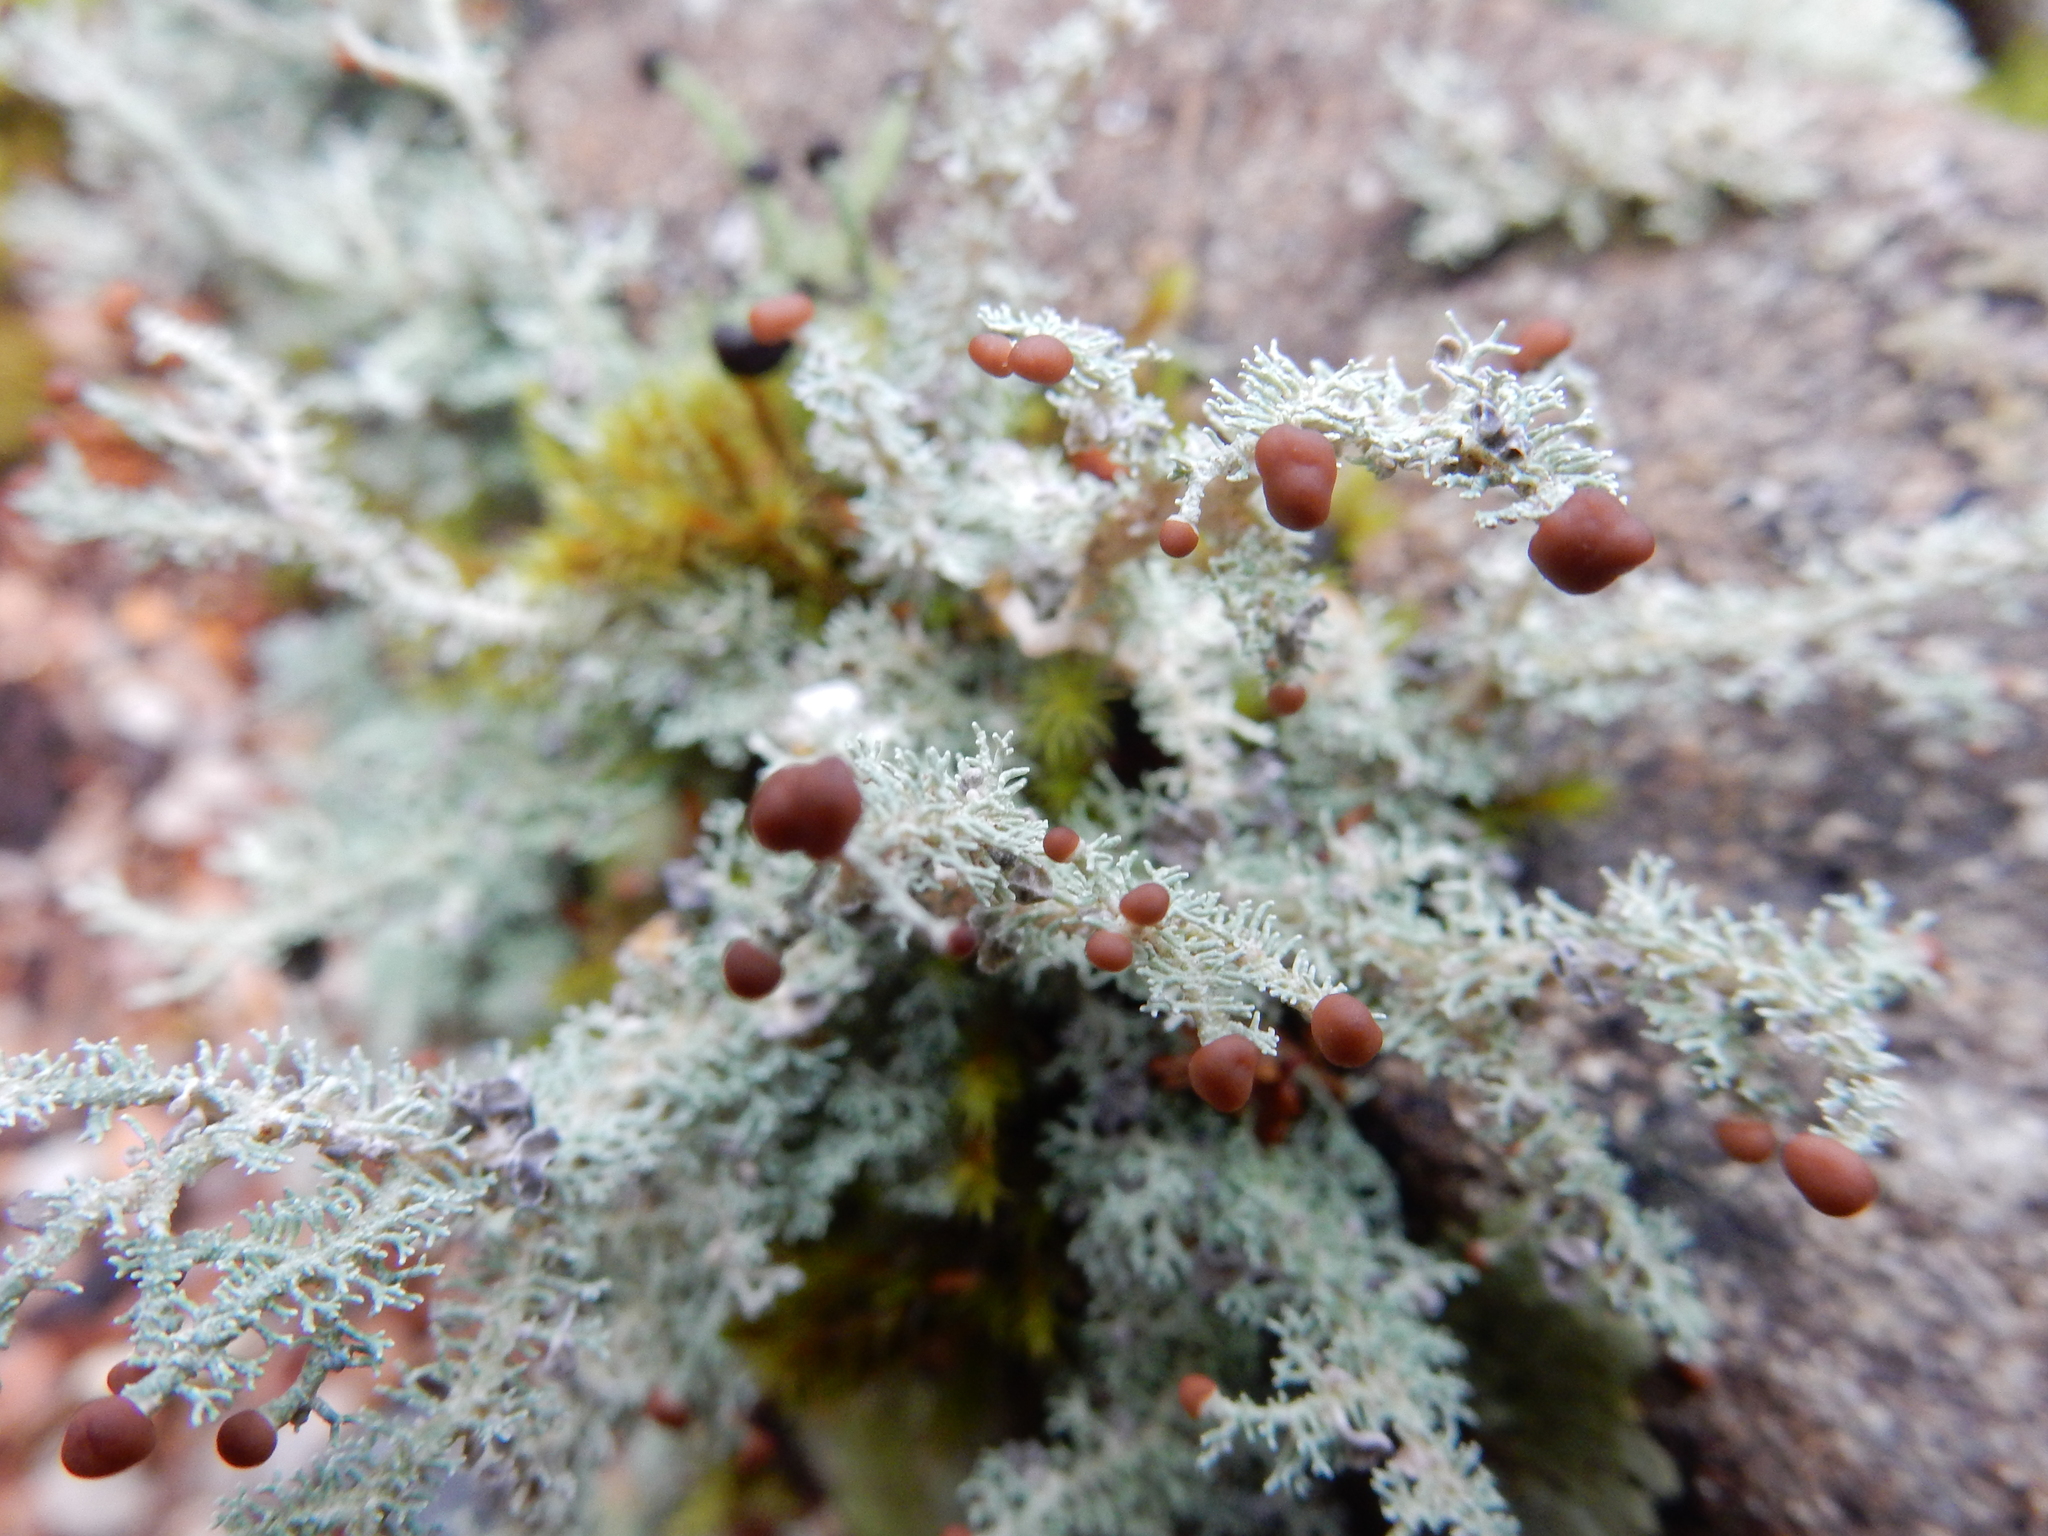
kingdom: Fungi
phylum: Ascomycota
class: Lecanoromycetes
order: Lecanorales
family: Stereocaulaceae
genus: Stereocaulon
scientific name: Stereocaulon ramulosum
